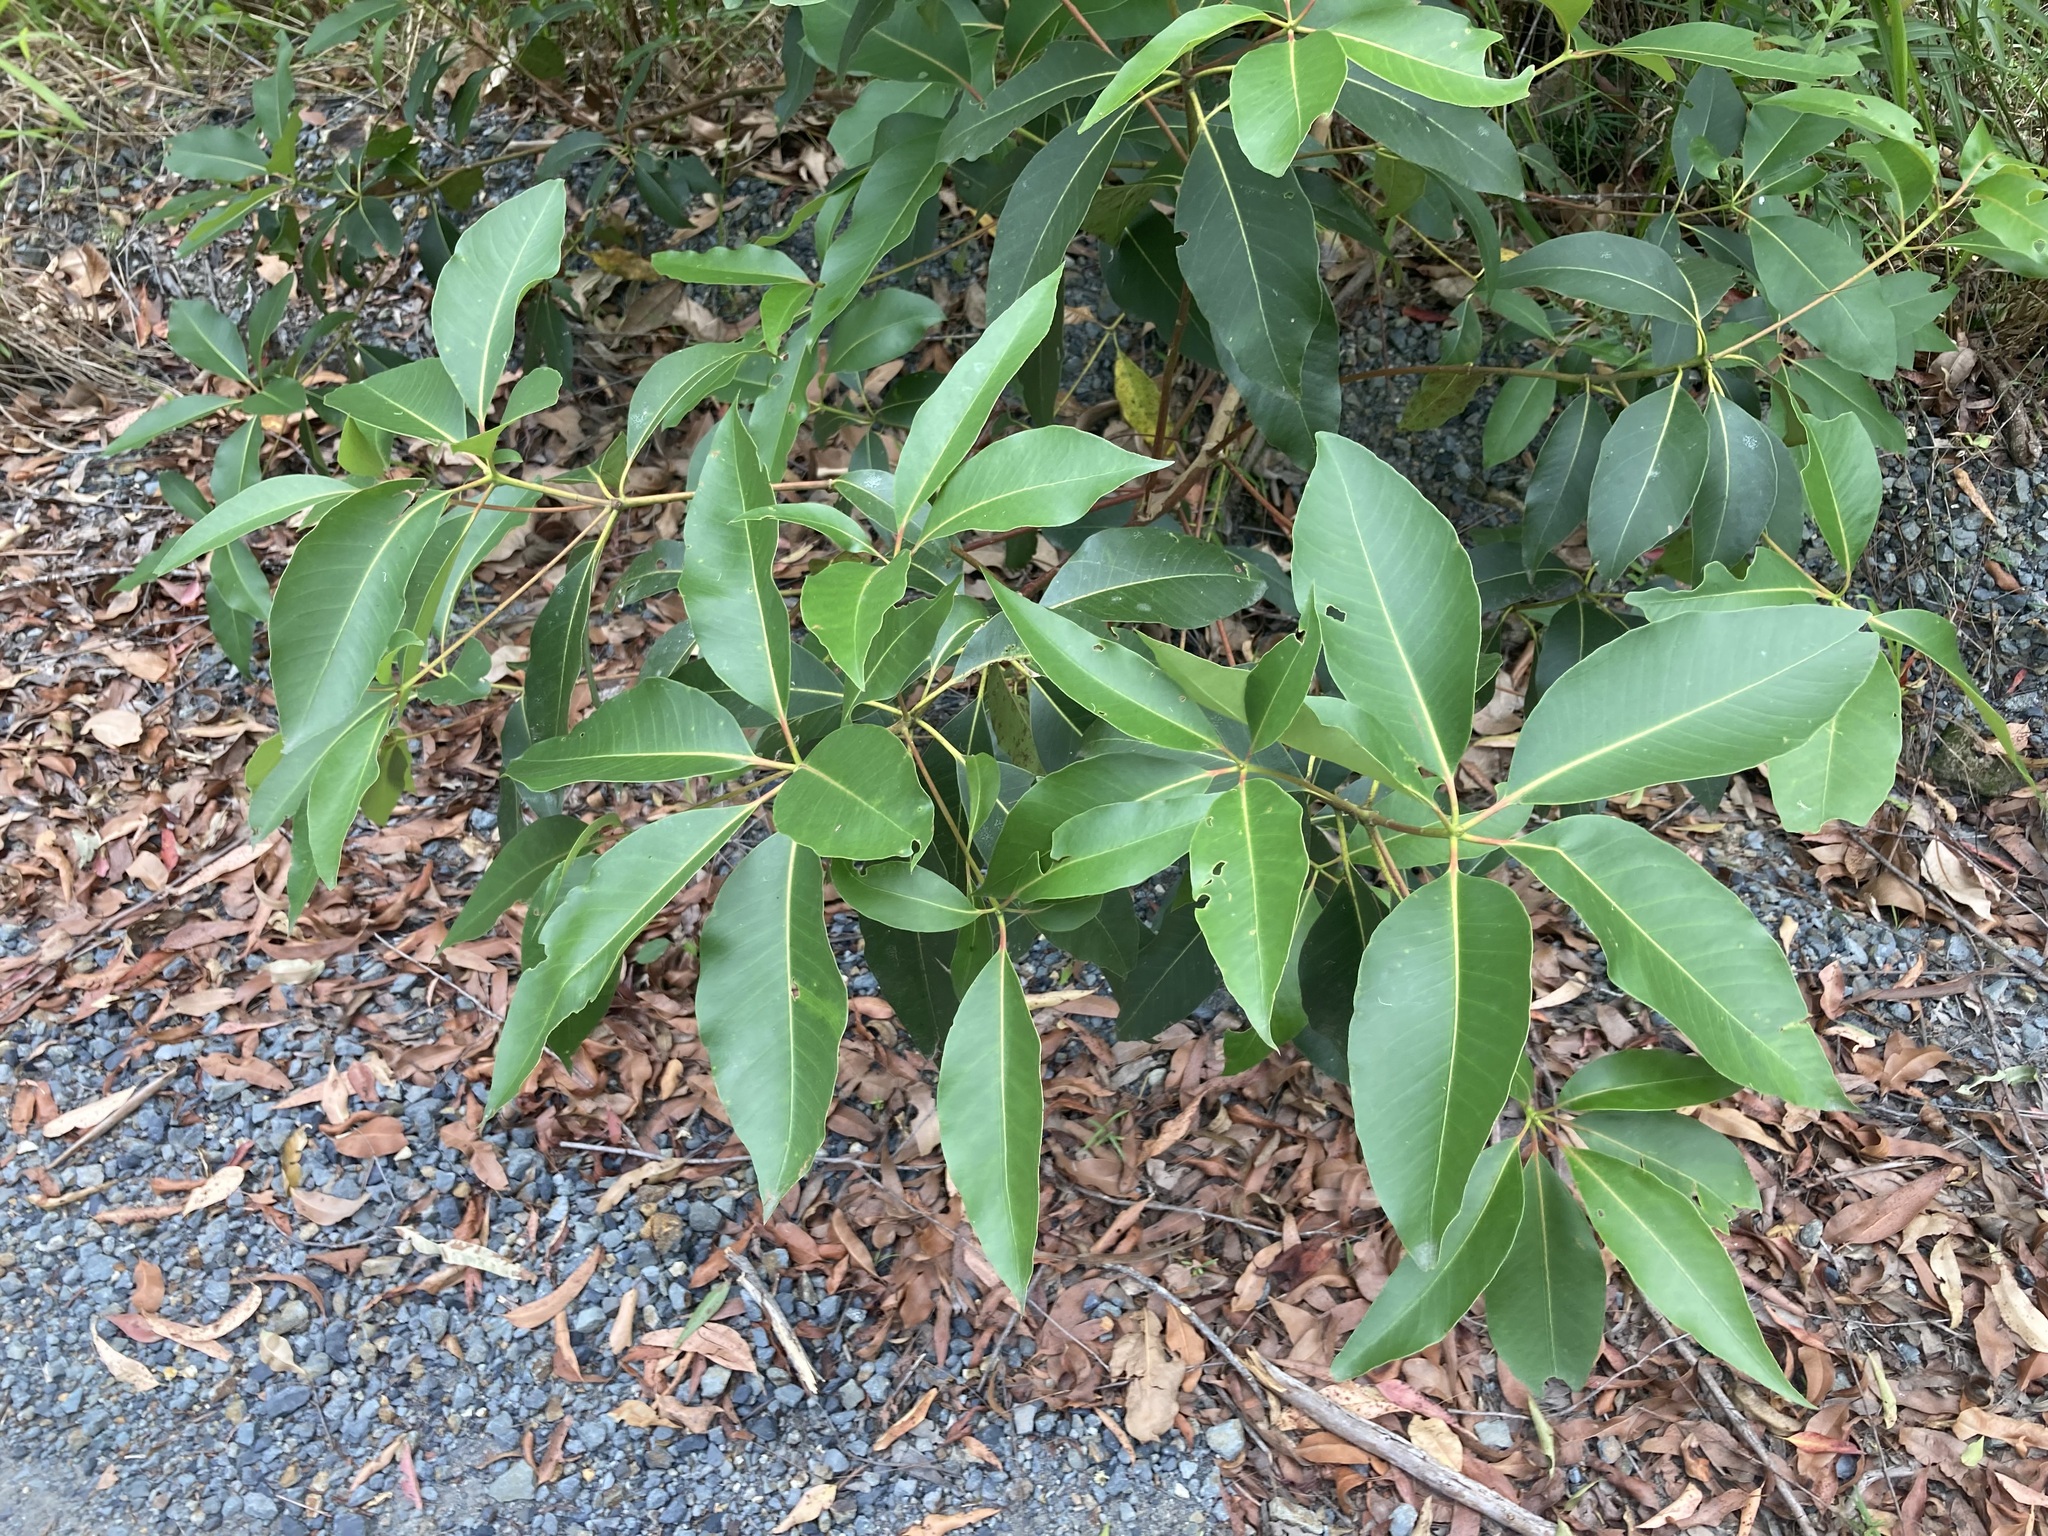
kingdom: Plantae
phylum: Tracheophyta
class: Magnoliopsida
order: Myrtales
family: Myrtaceae
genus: Lophostemon
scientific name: Lophostemon confertus
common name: Brisbane box
